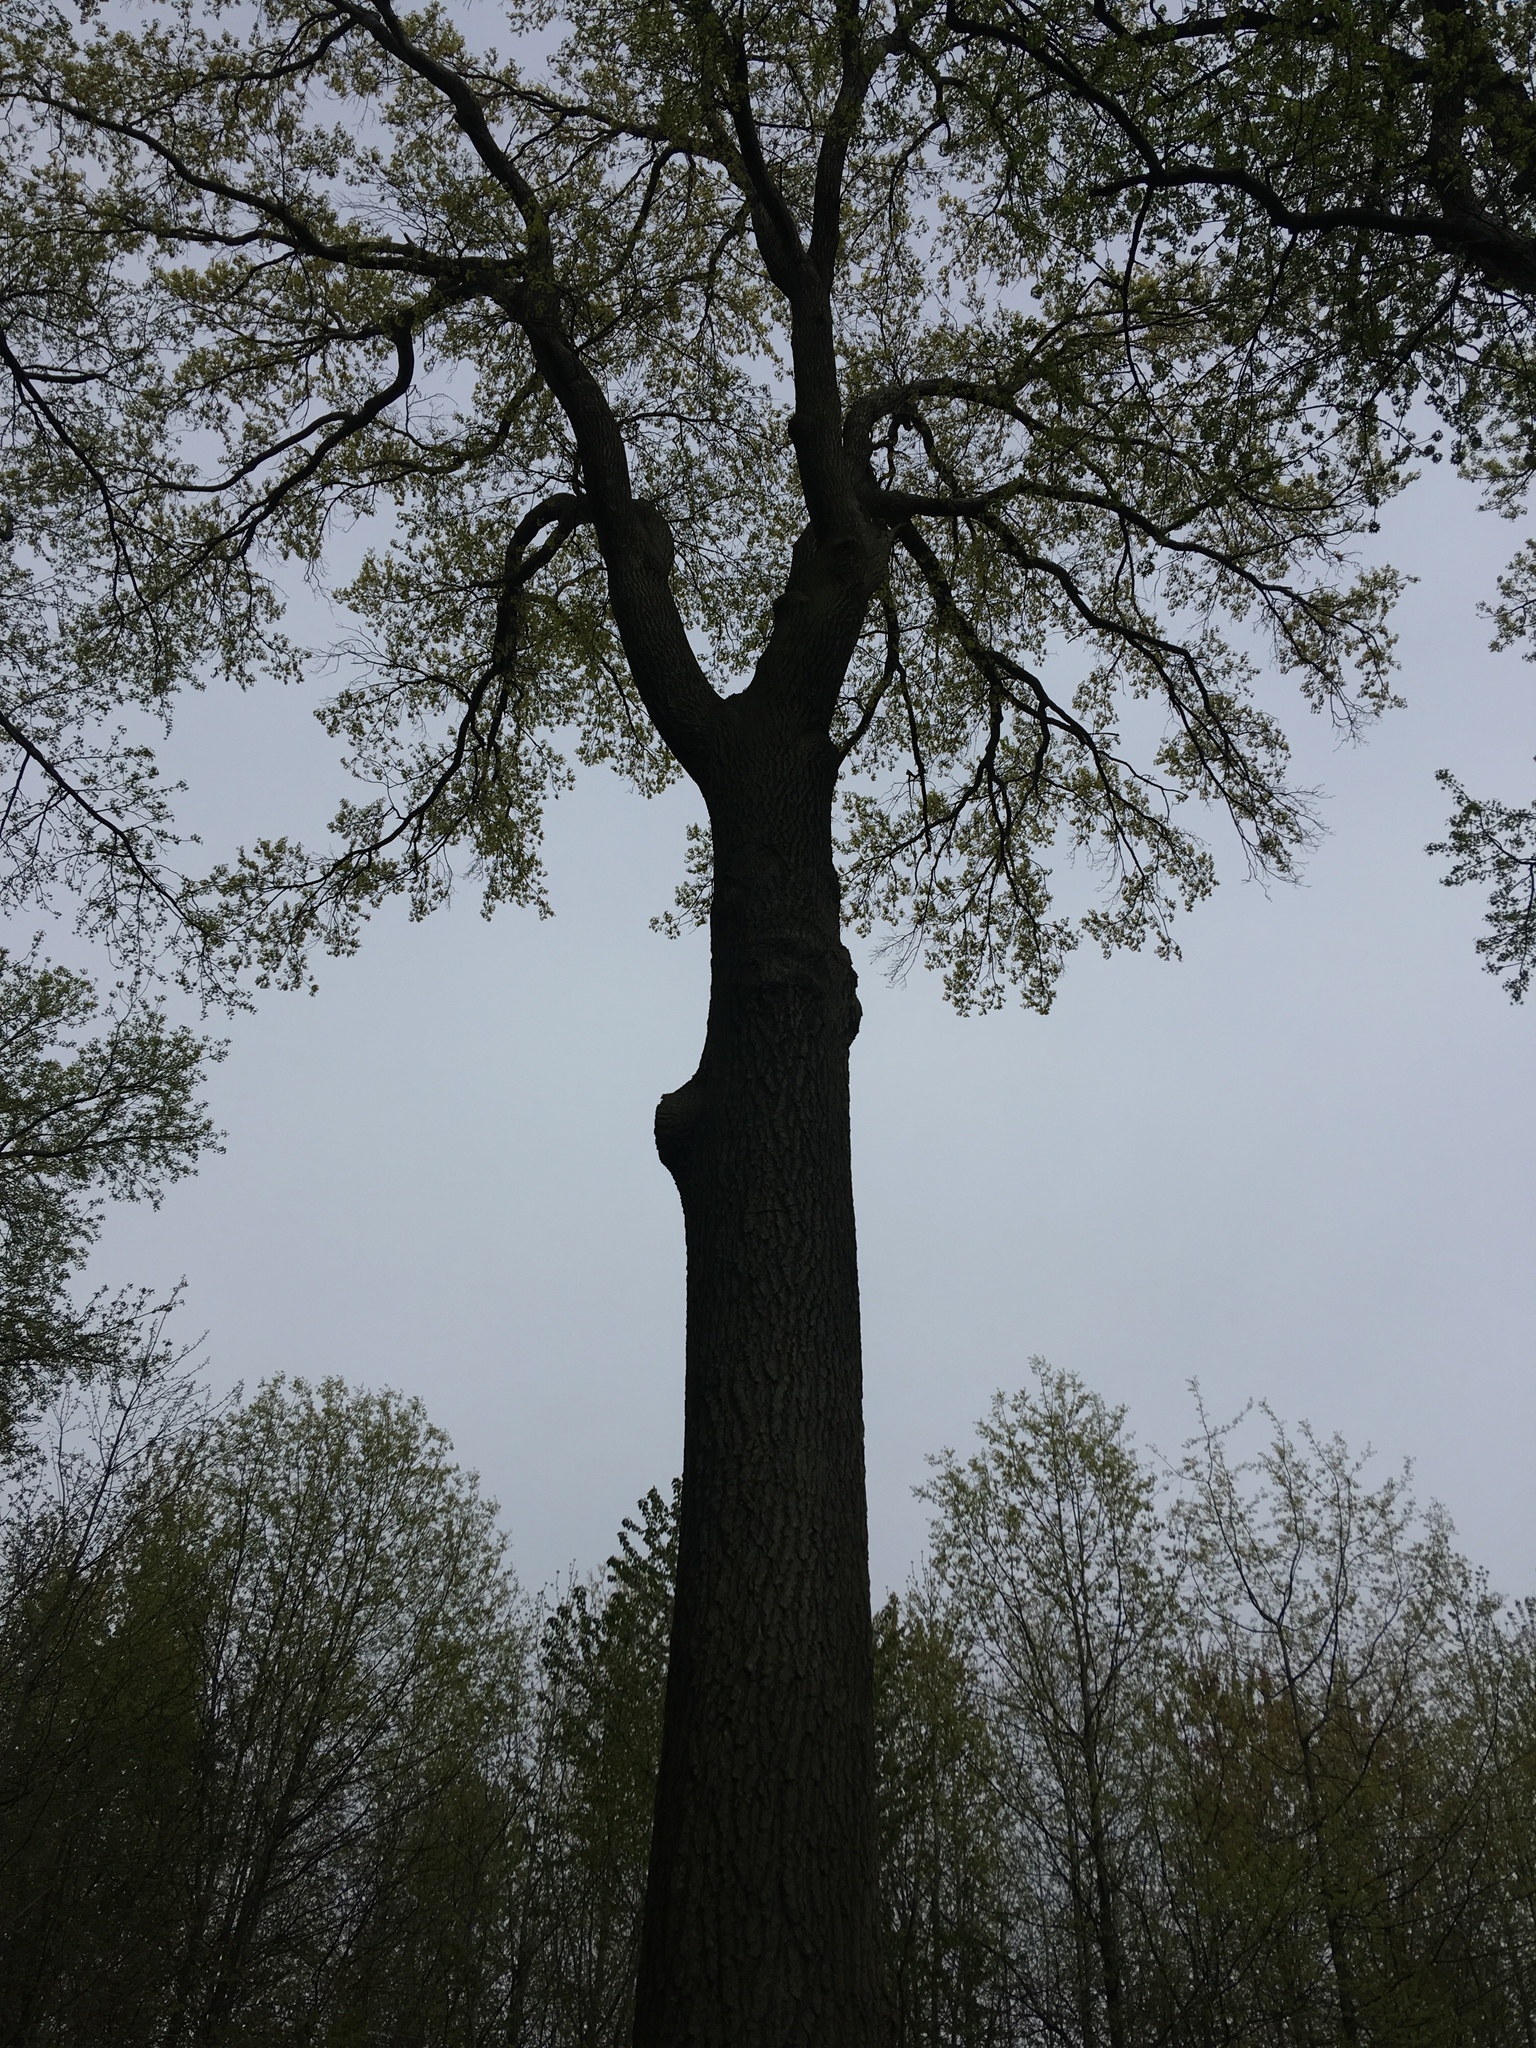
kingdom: Plantae
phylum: Tracheophyta
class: Magnoliopsida
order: Fagales
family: Fagaceae
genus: Quercus
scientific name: Quercus rubra
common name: Red oak
